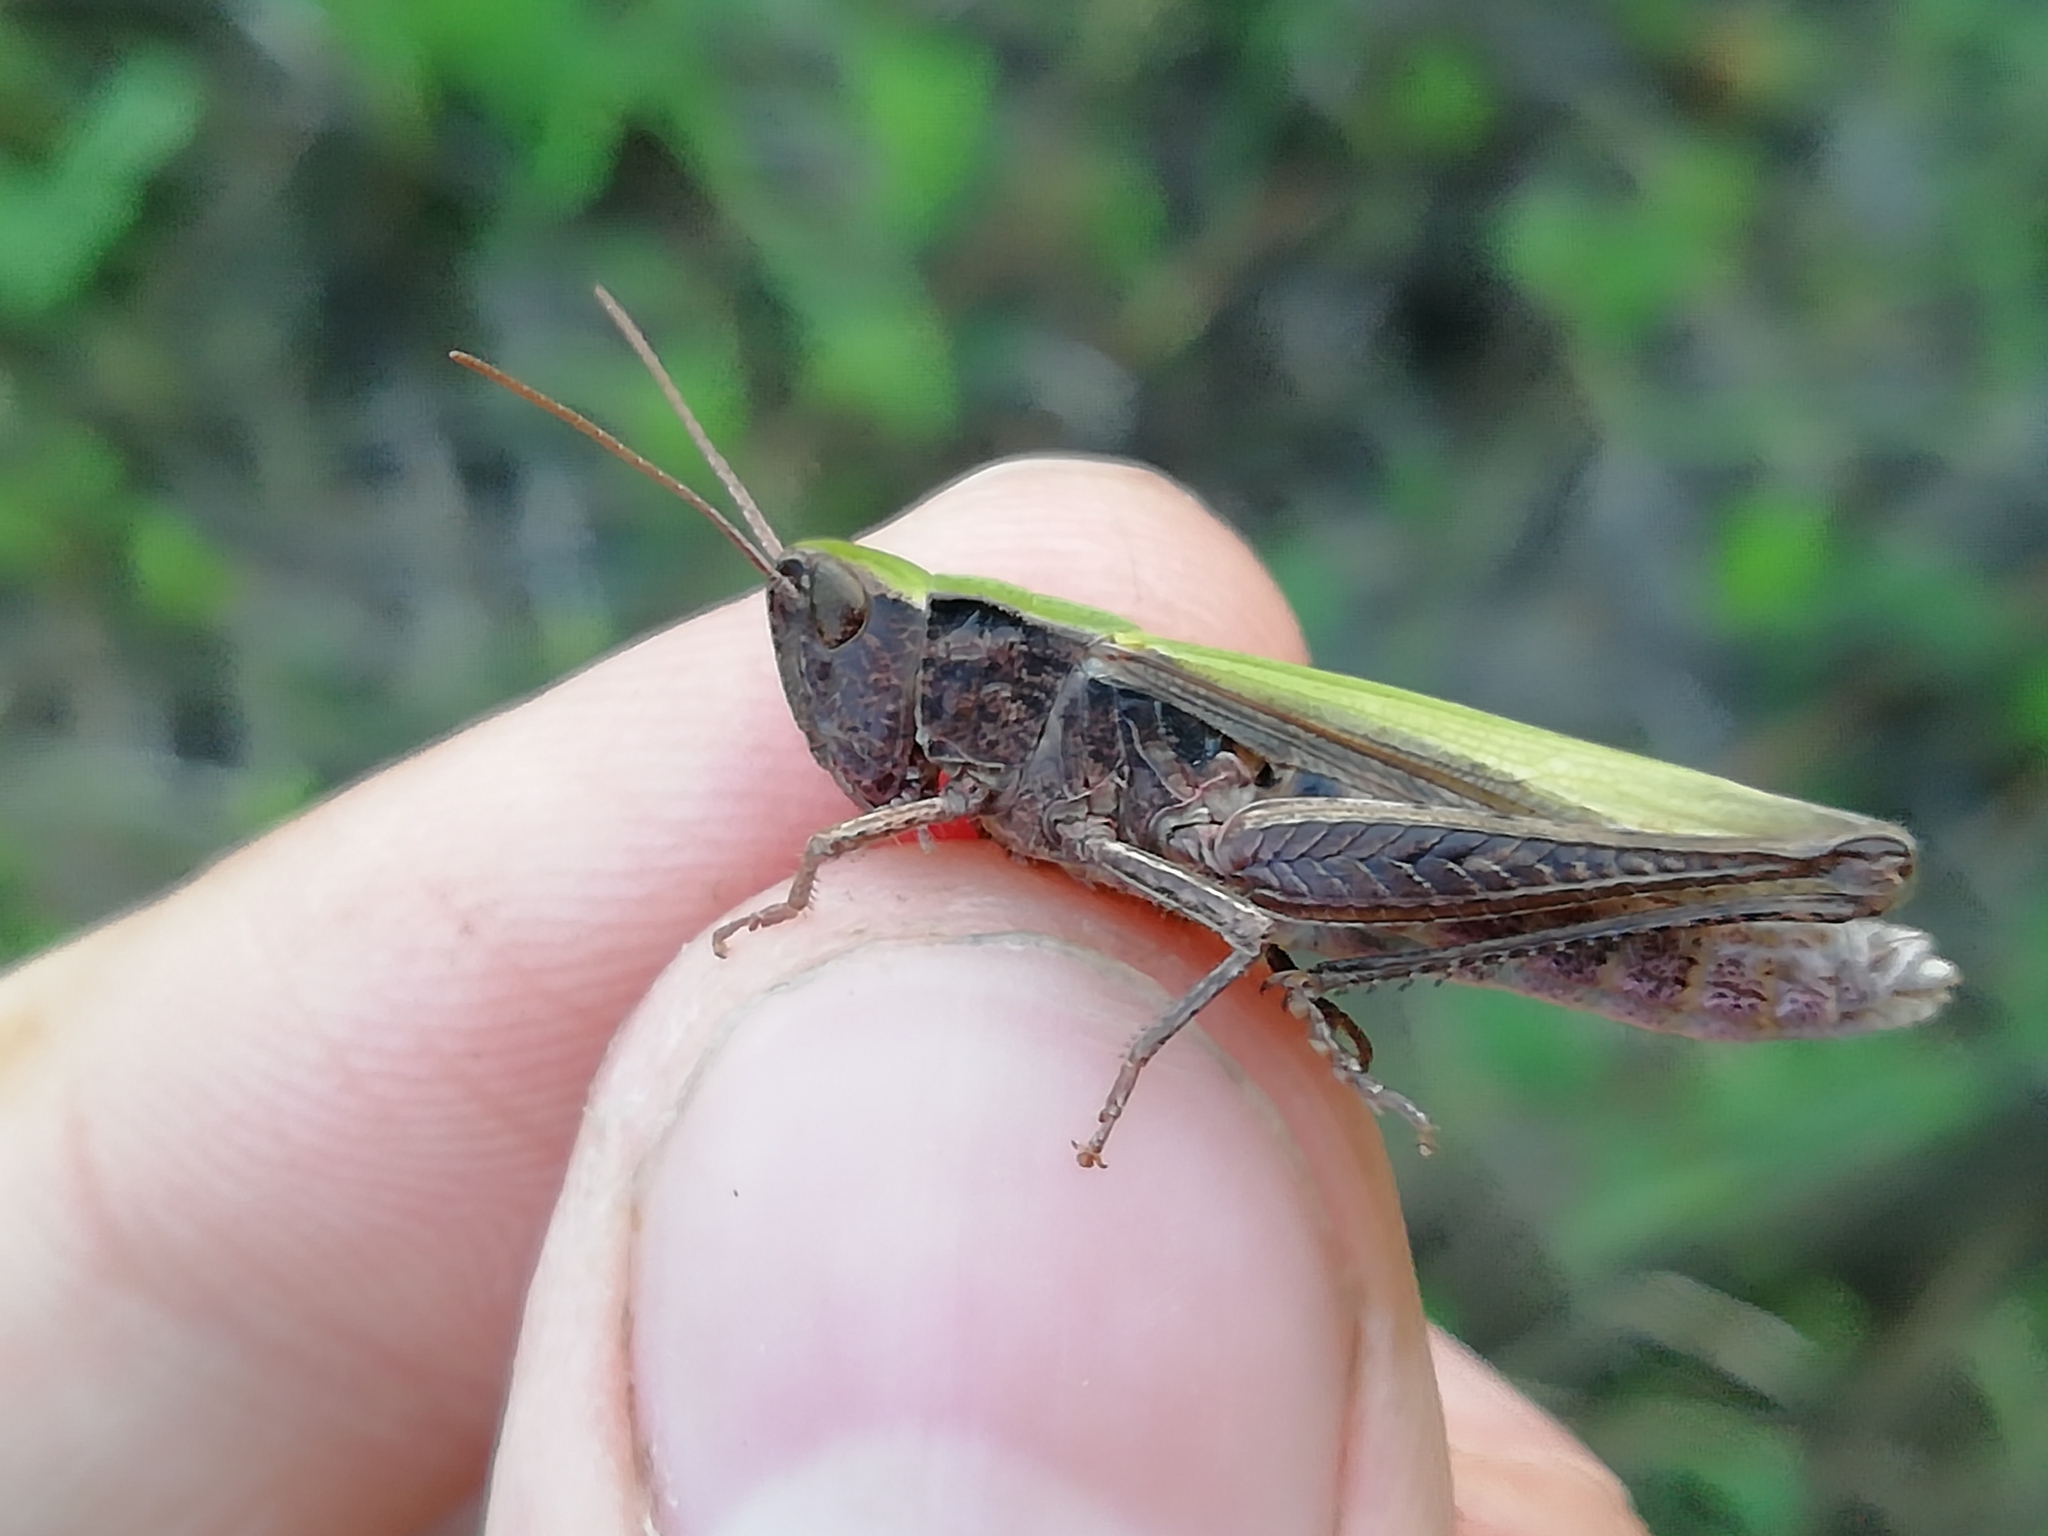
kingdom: Animalia
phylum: Arthropoda
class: Insecta
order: Orthoptera
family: Acrididae
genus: Chorthippus
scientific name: Chorthippus dorsatus
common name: Steppe grasshopper
